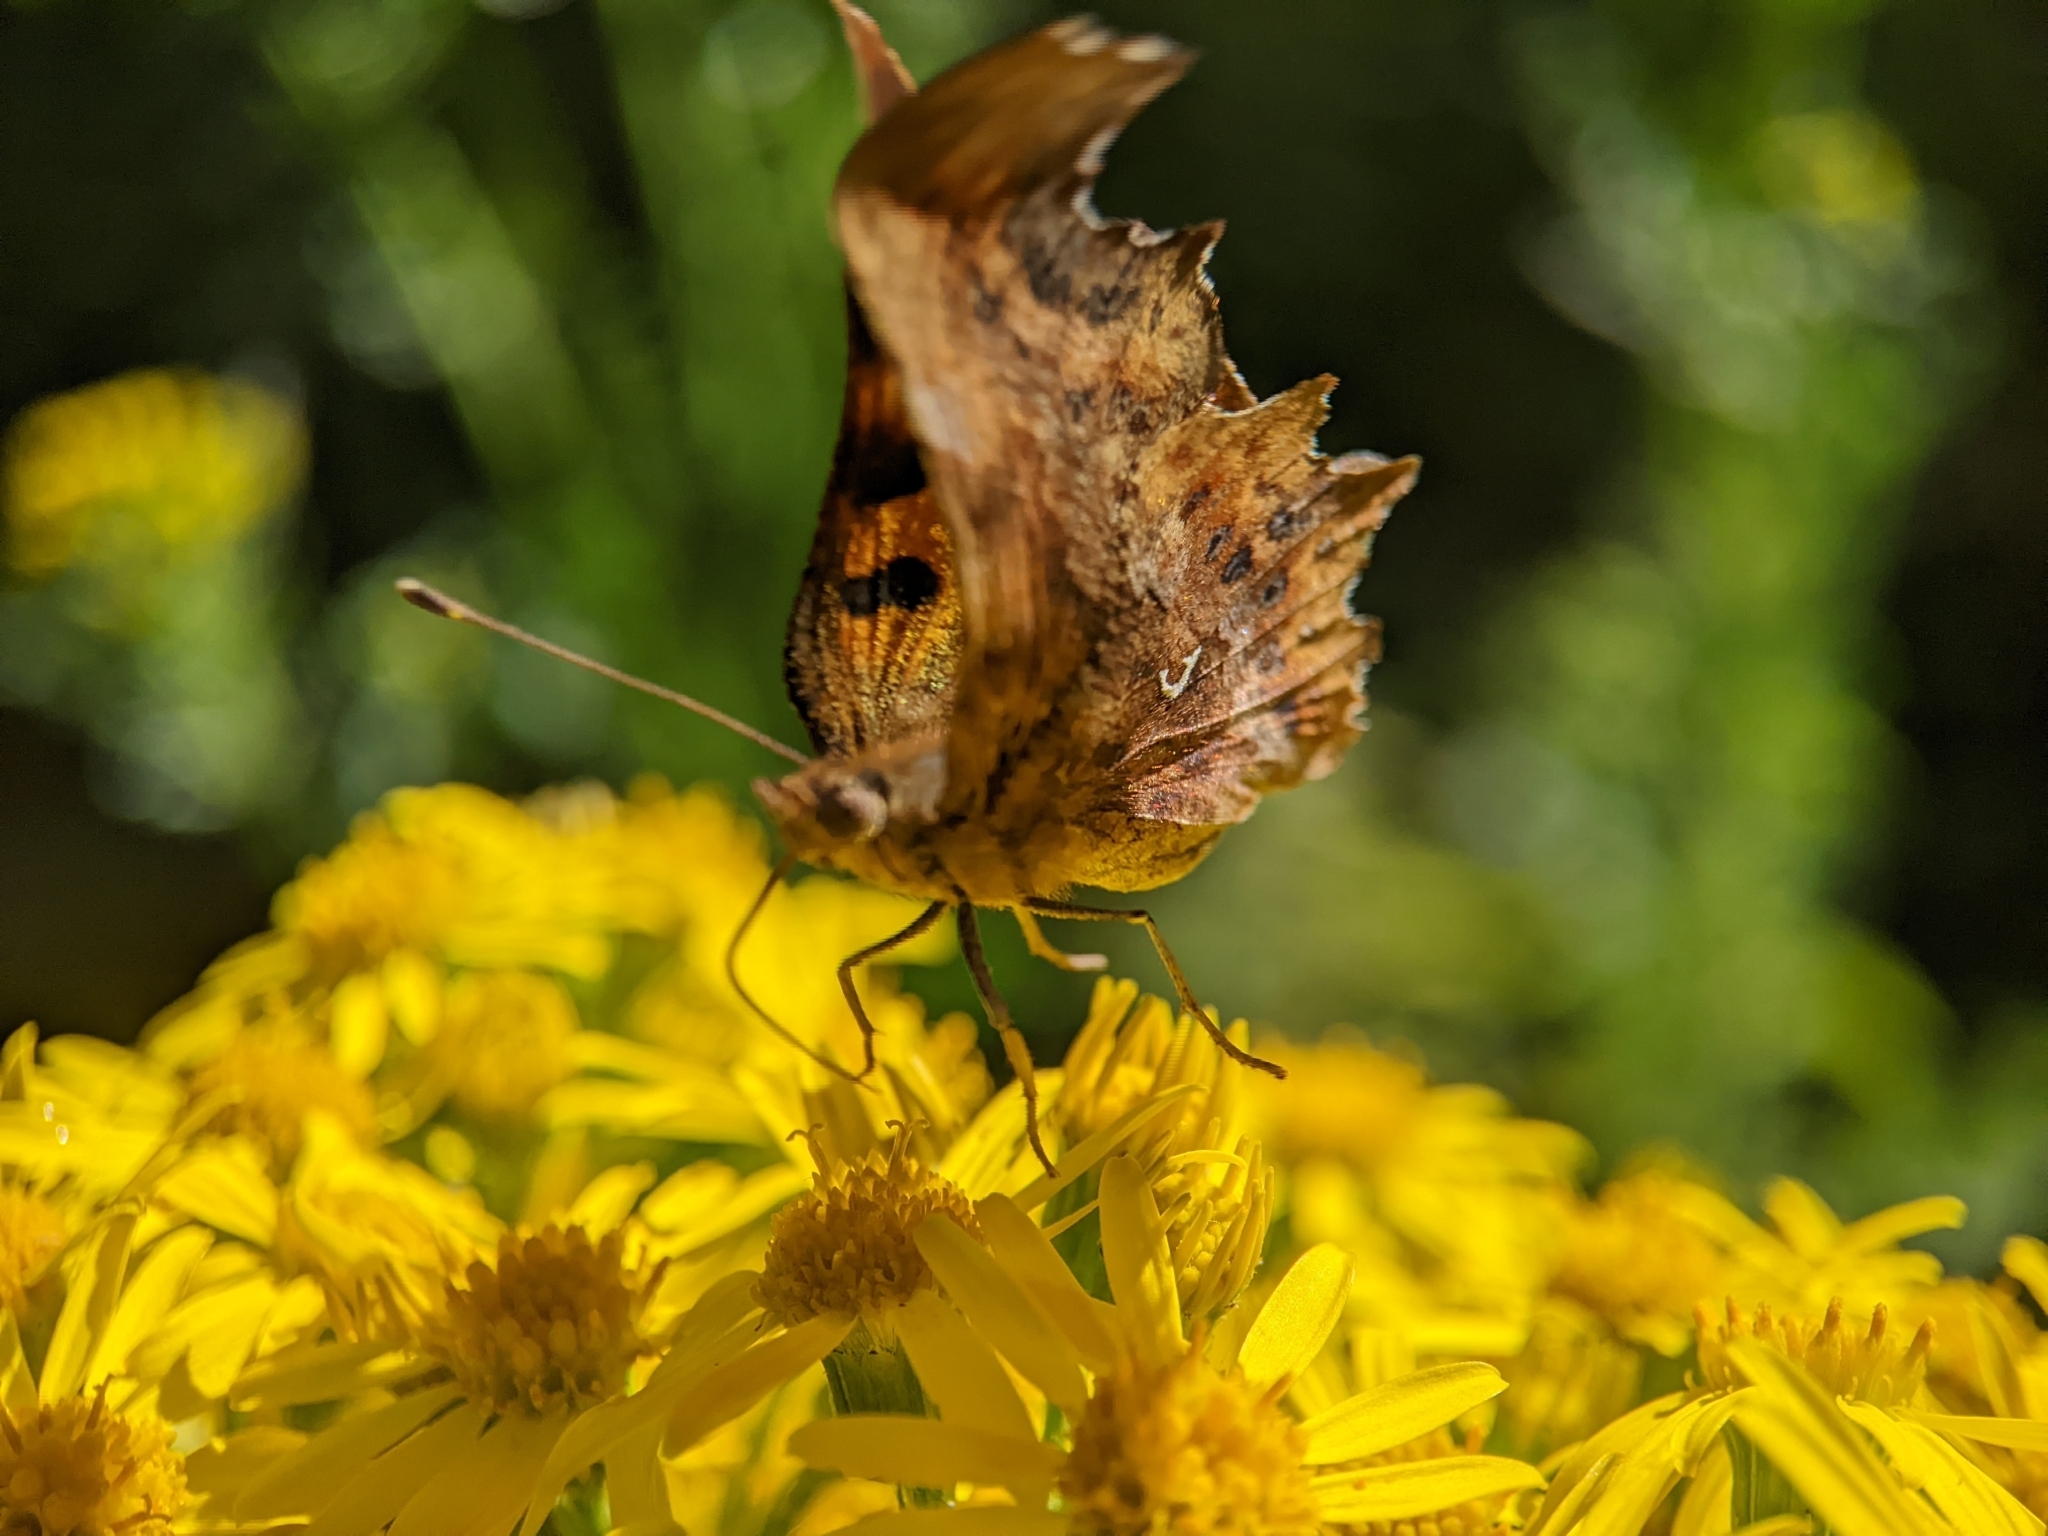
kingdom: Animalia
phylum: Arthropoda
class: Insecta
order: Lepidoptera
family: Nymphalidae
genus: Polygonia
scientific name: Polygonia c-album
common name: Comma
